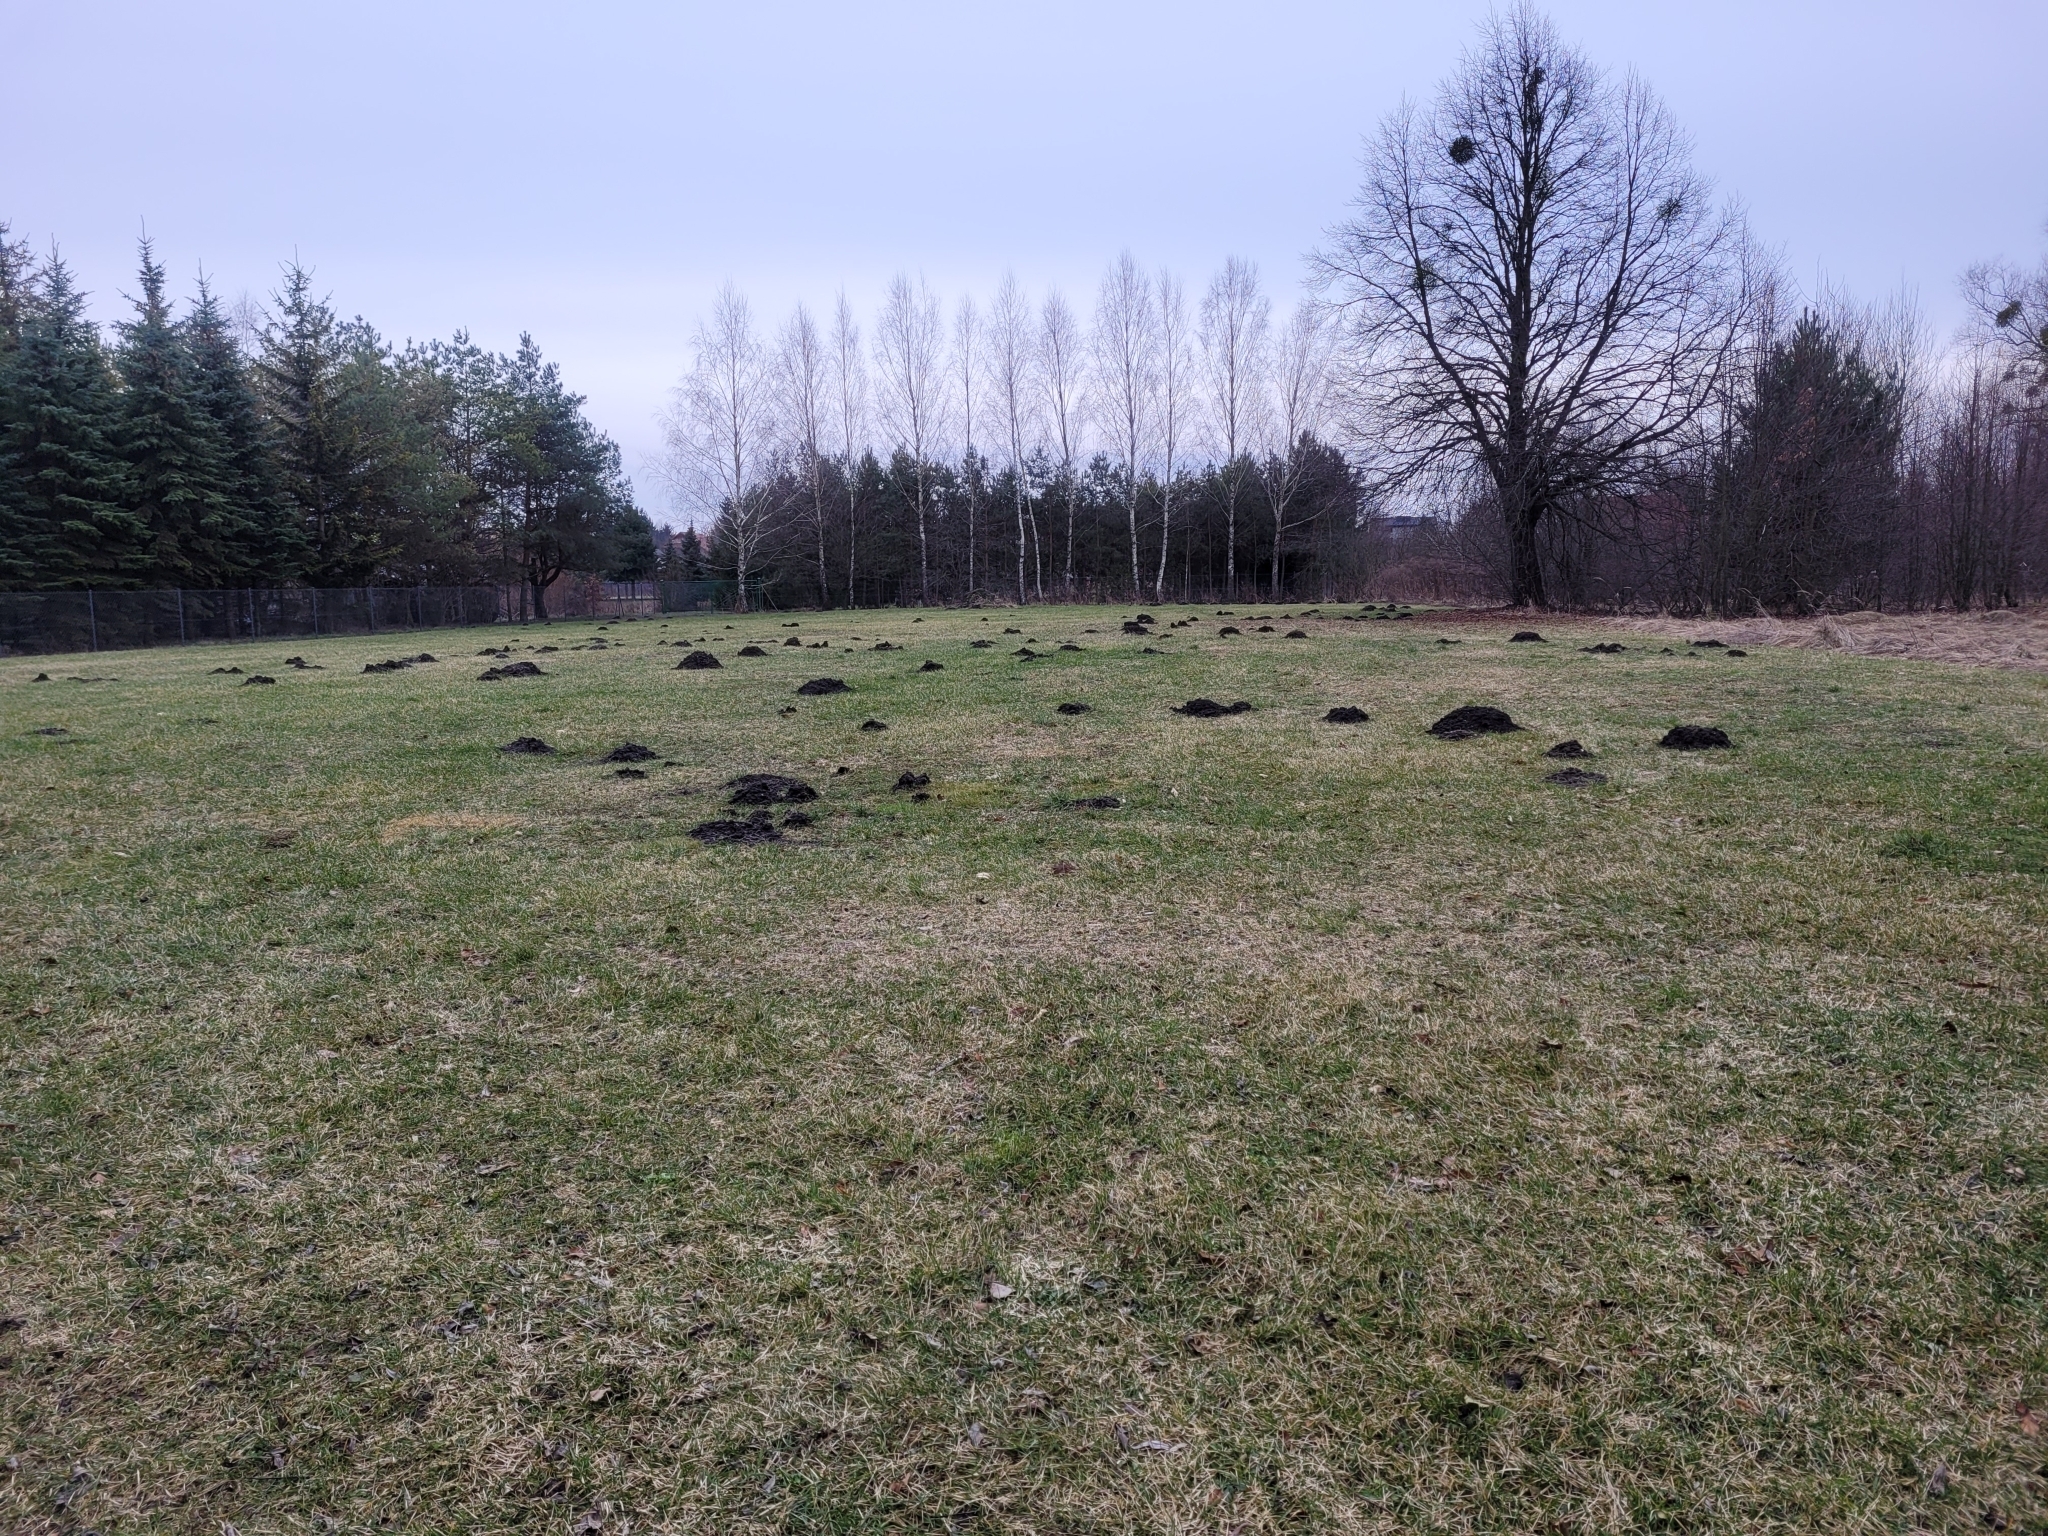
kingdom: Animalia
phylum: Chordata
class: Mammalia
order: Soricomorpha
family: Talpidae
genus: Talpa
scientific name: Talpa europaea
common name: European mole
